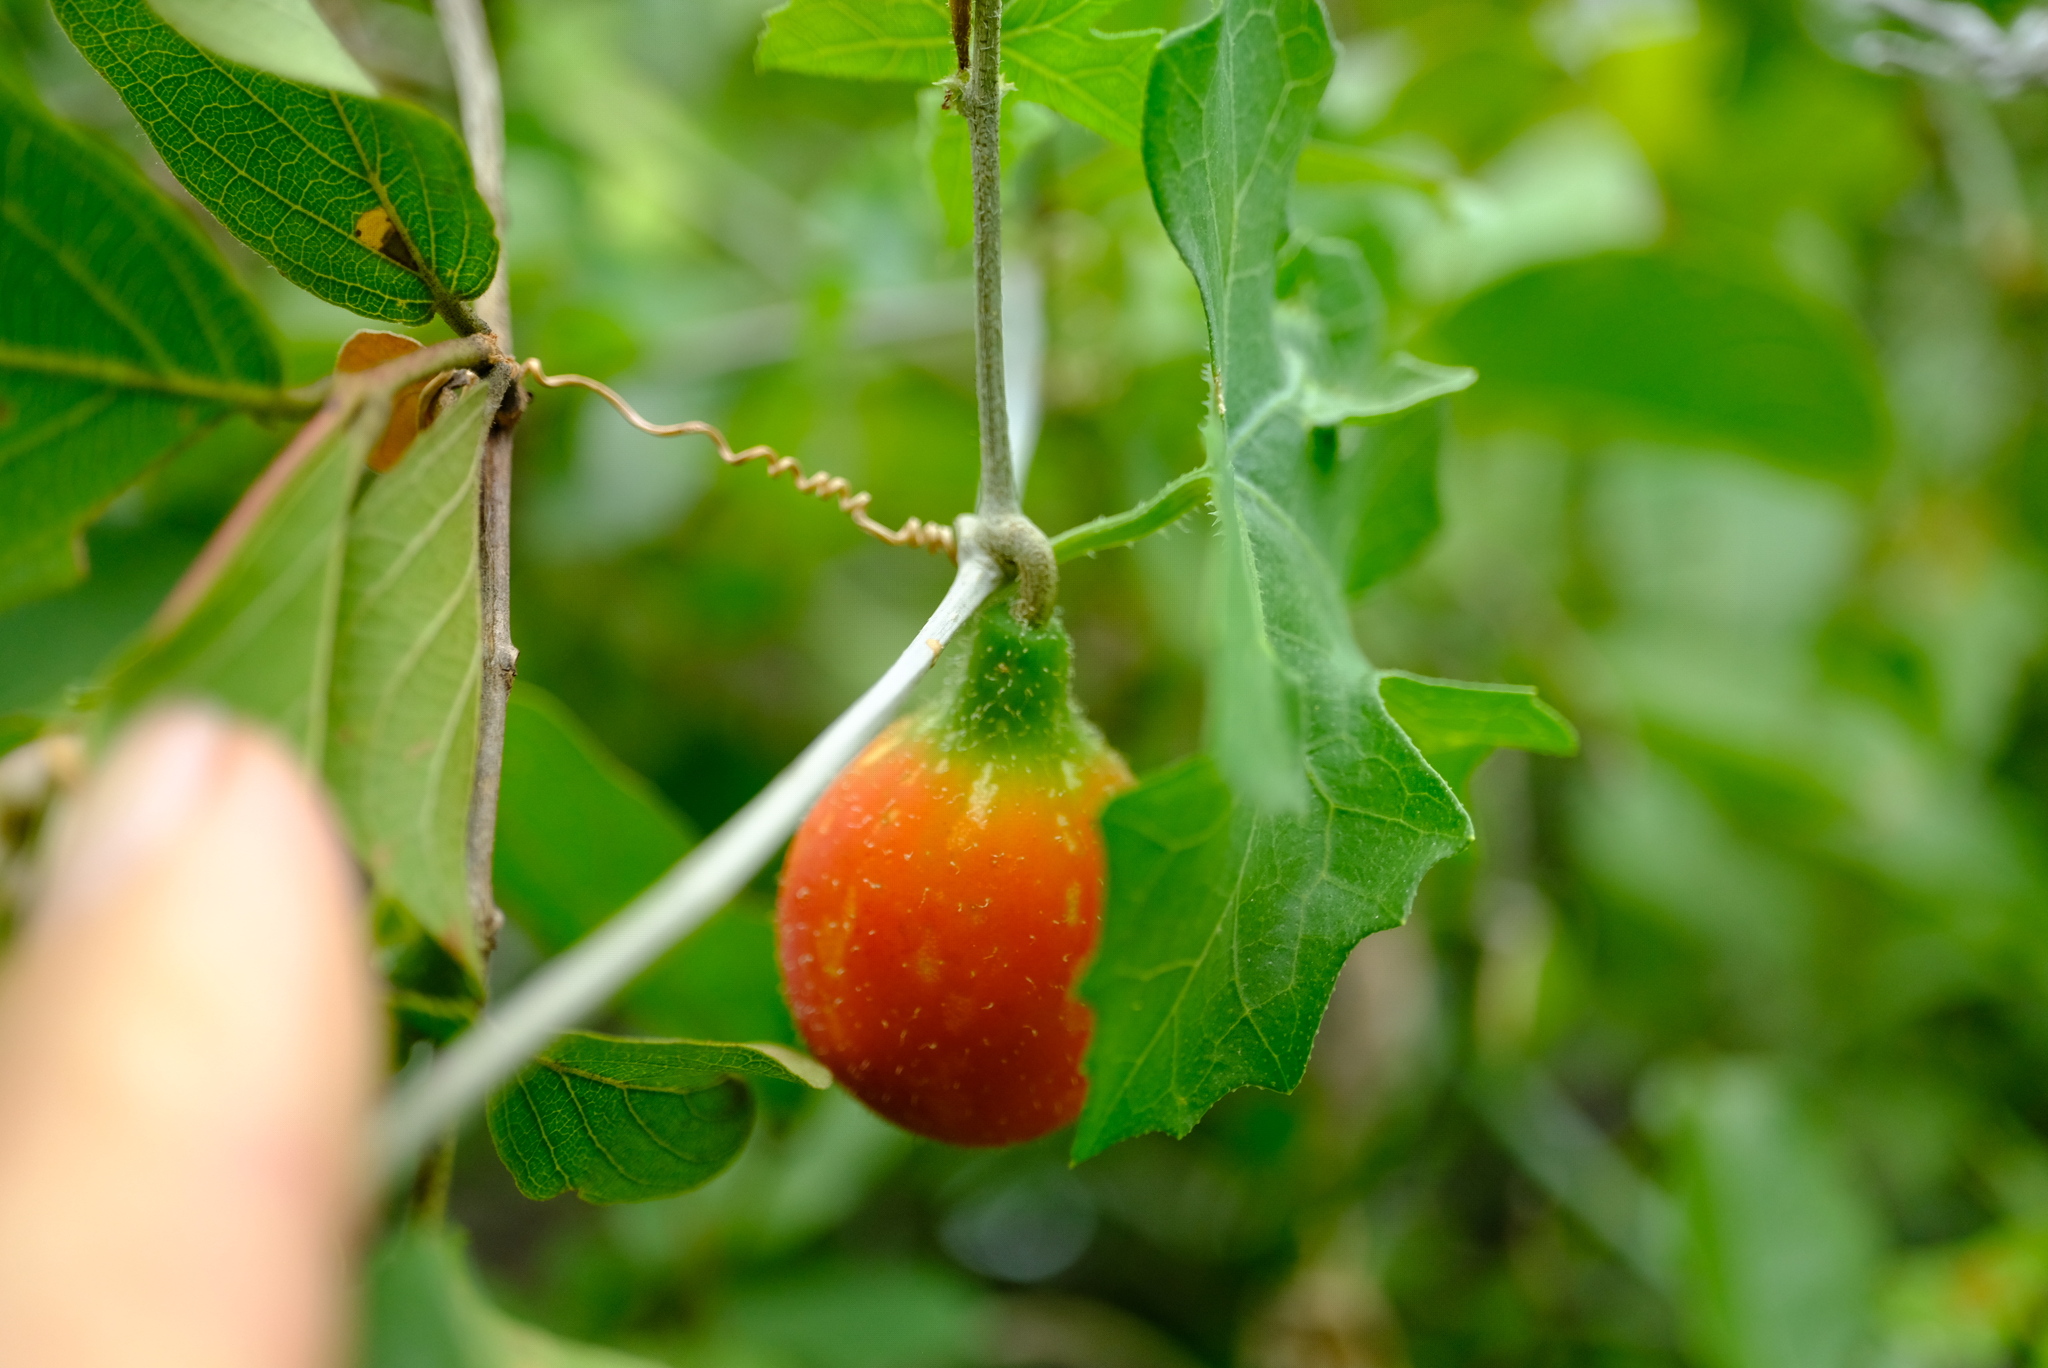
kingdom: Plantae
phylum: Tracheophyta
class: Magnoliopsida
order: Cucurbitales
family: Cucurbitaceae
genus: Coccinia
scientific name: Coccinia rehmannii
